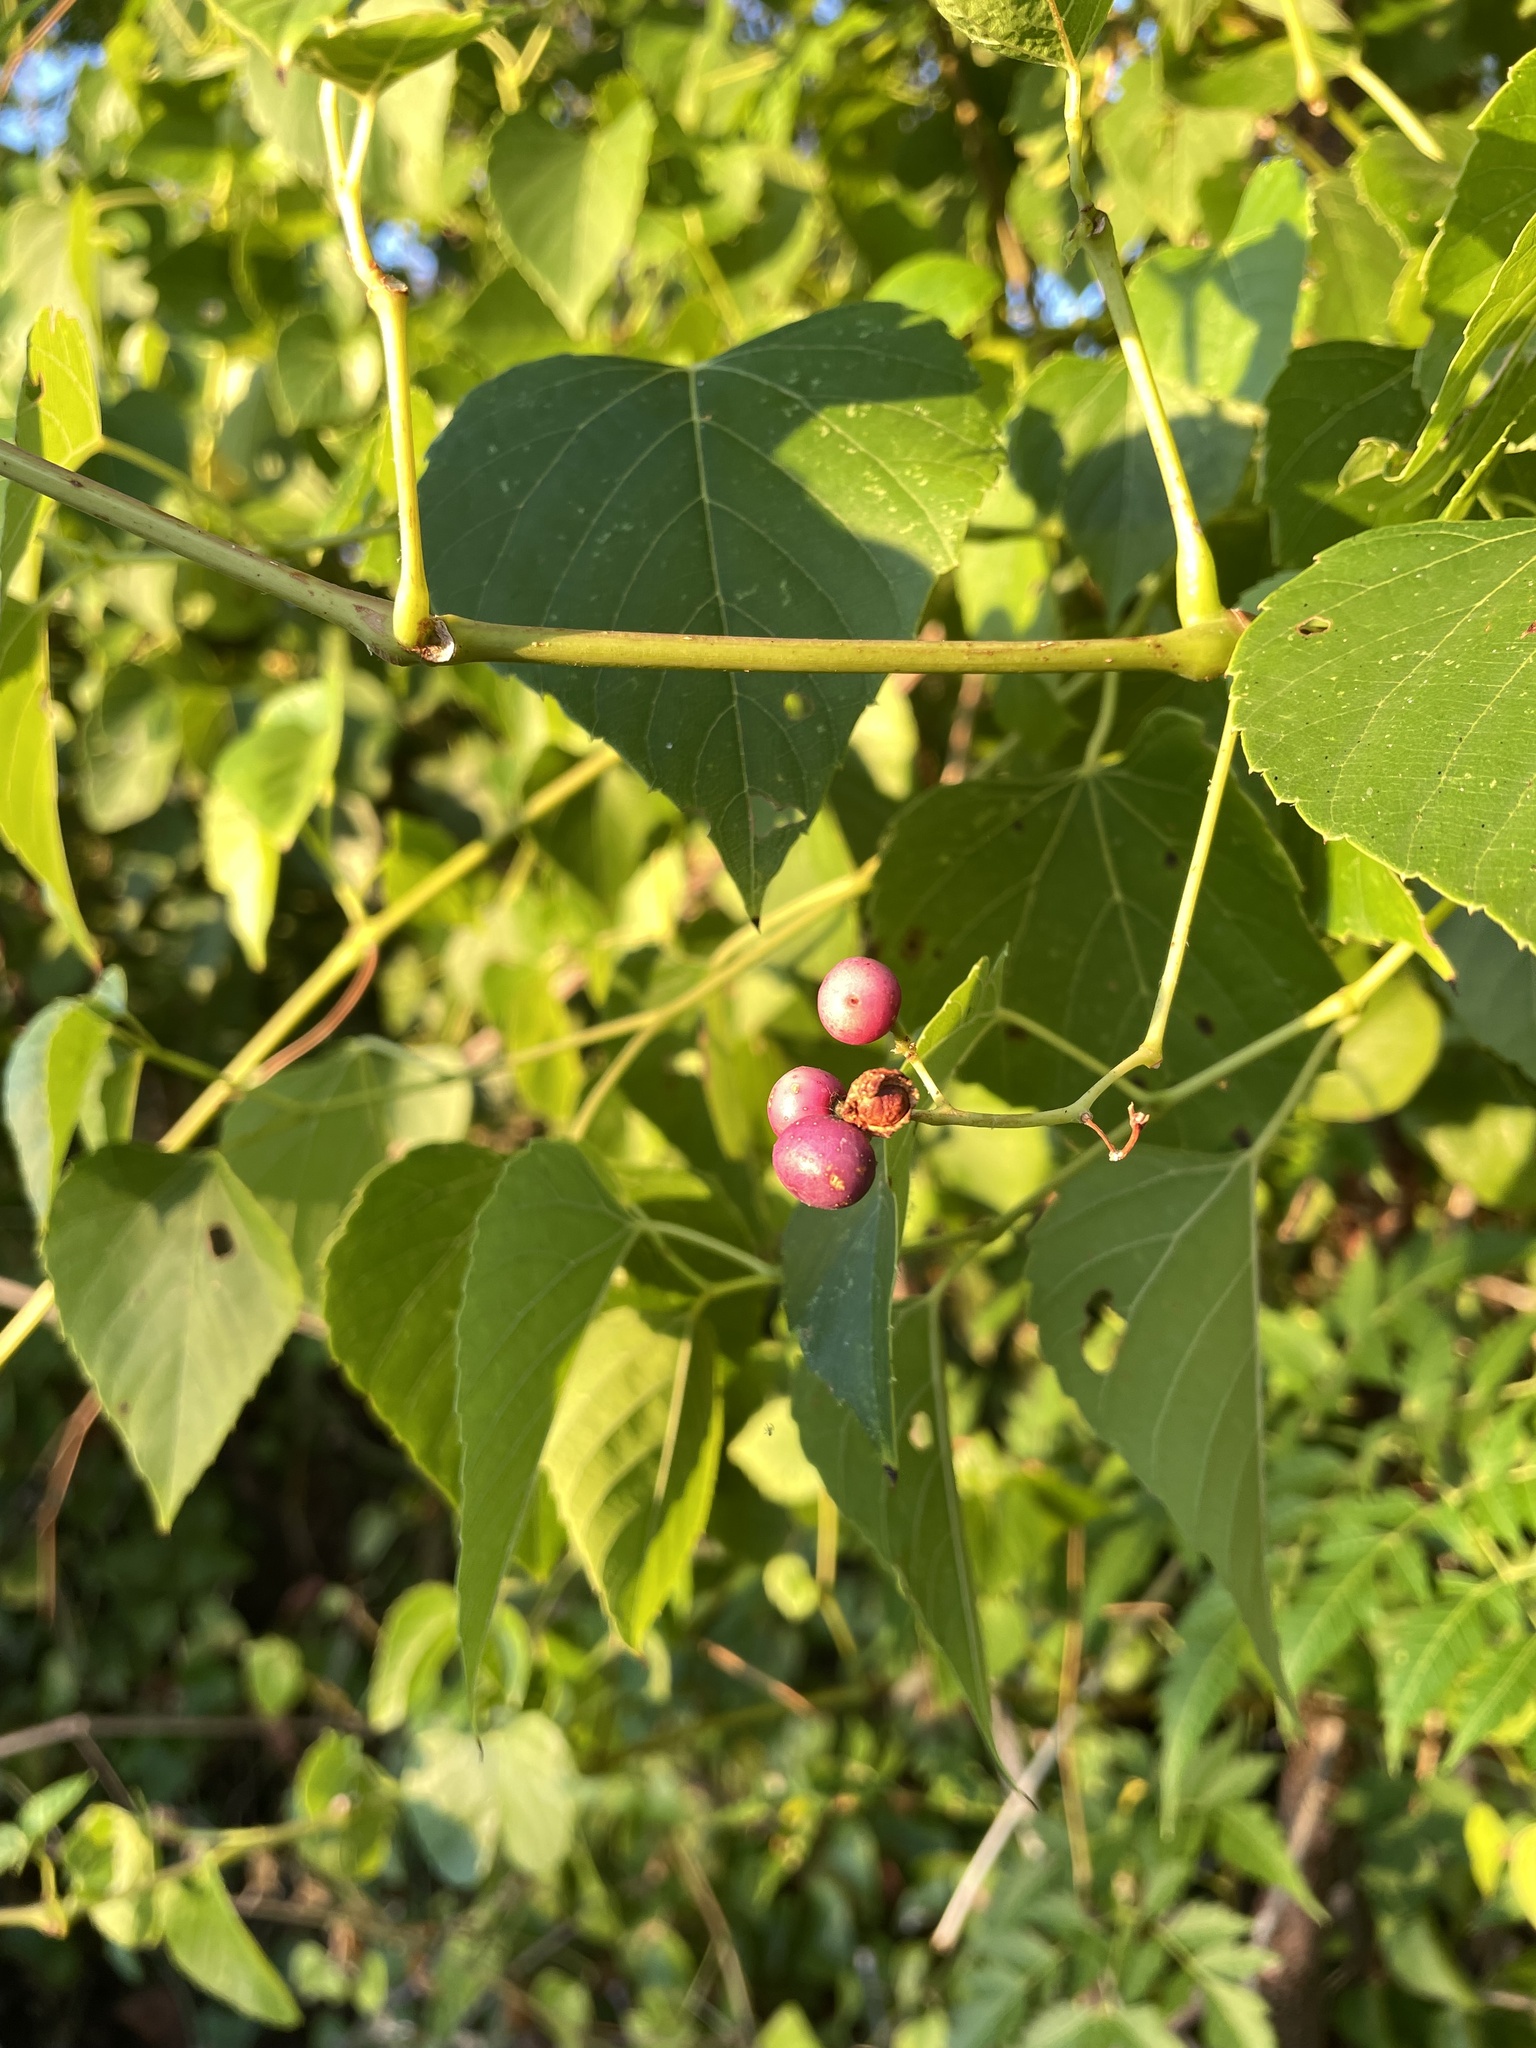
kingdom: Plantae
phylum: Tracheophyta
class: Magnoliopsida
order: Vitales
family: Vitaceae
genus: Ampelopsis
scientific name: Ampelopsis cordata
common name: Heart-leaf ampelopsis
